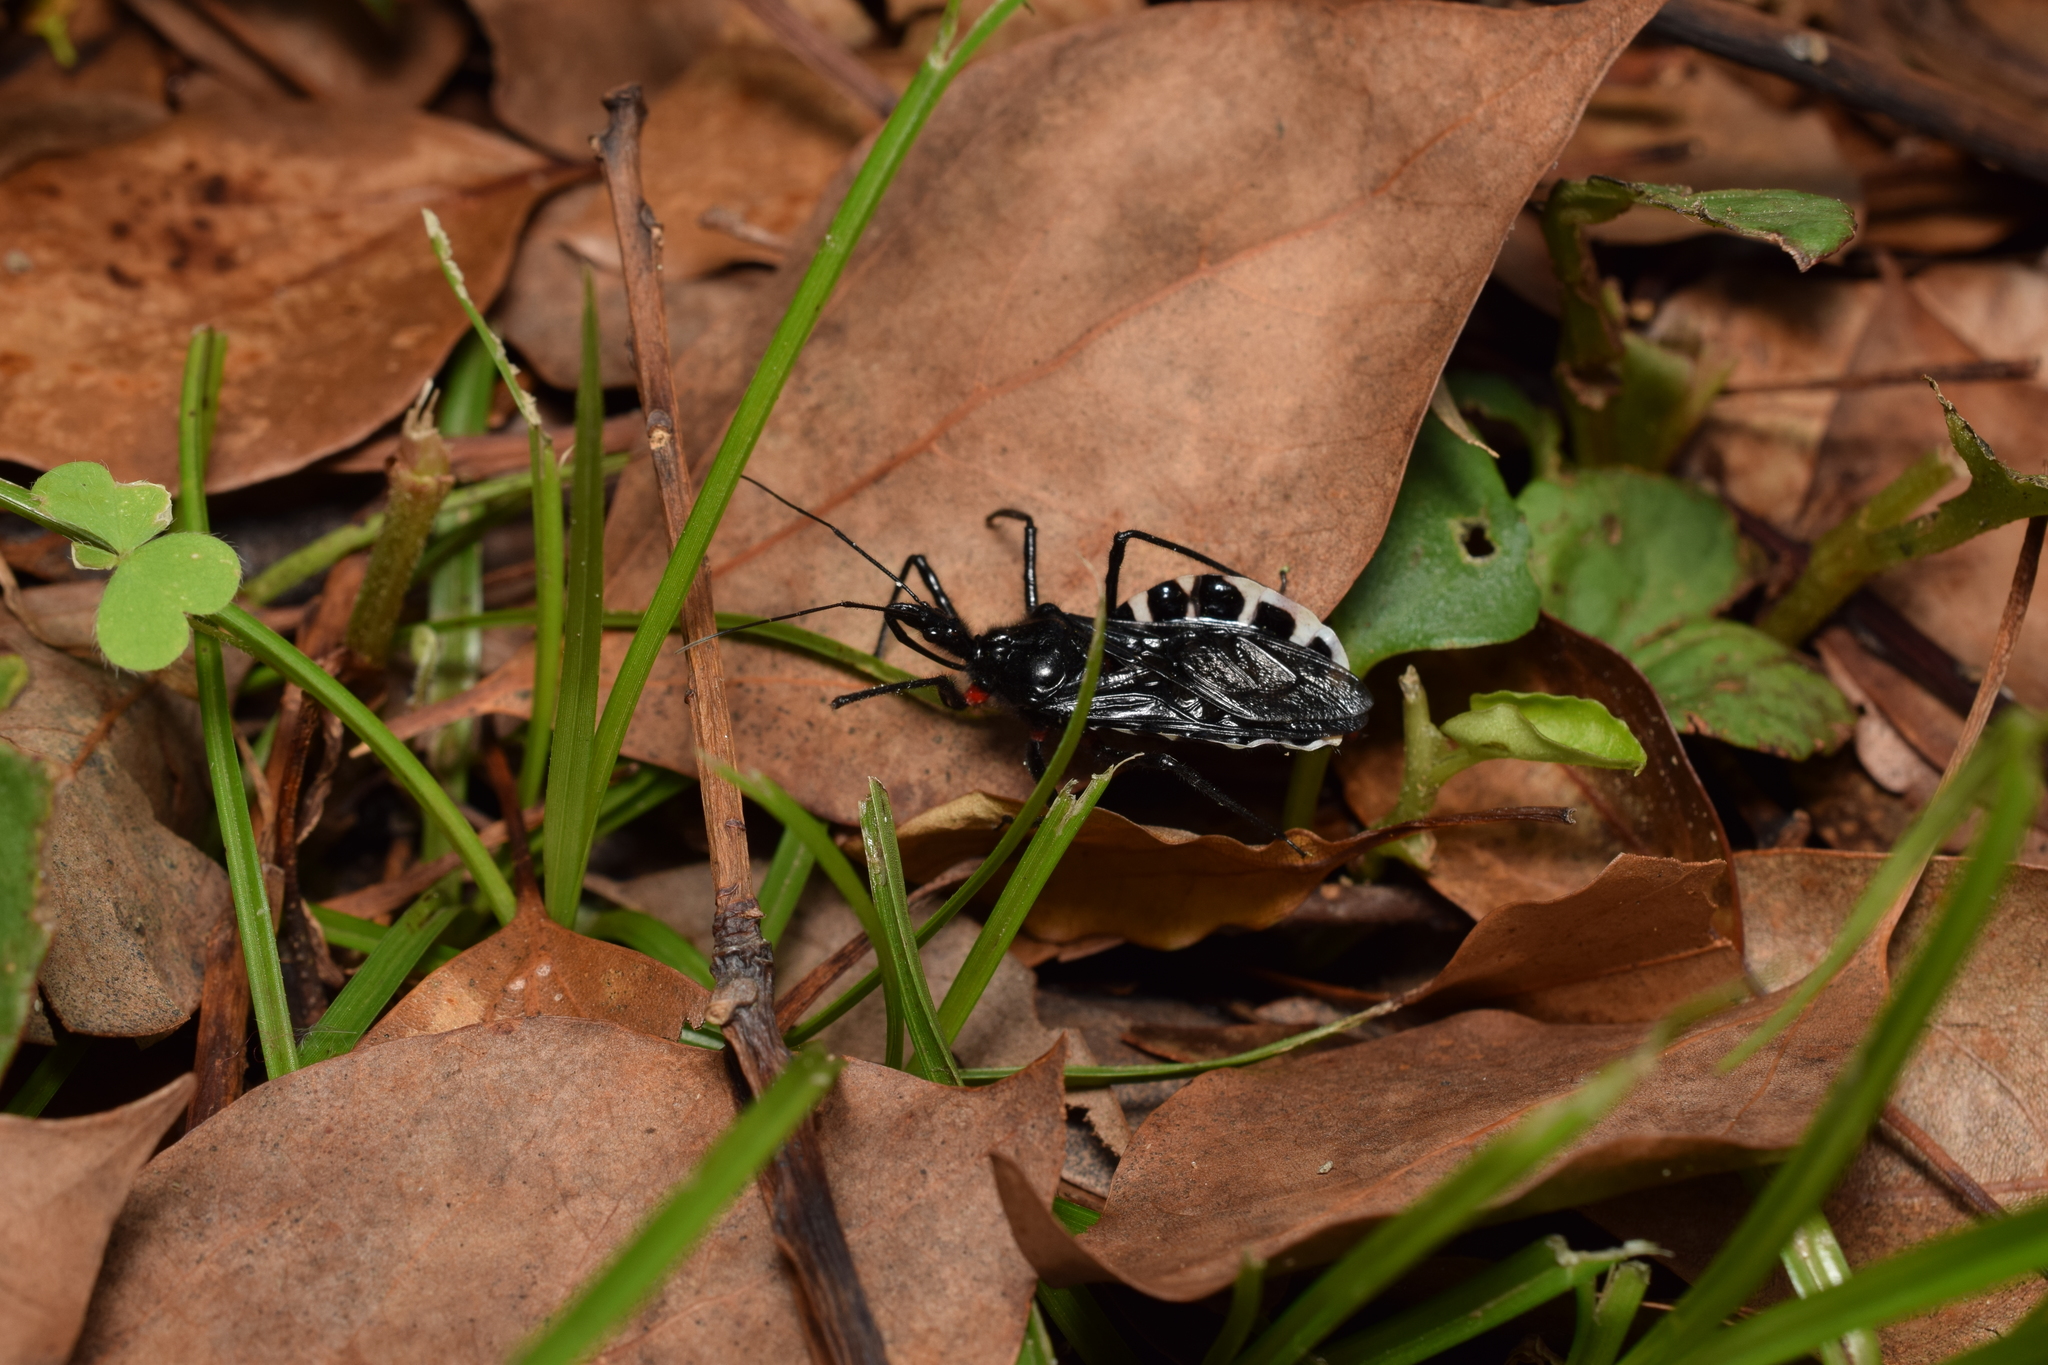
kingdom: Animalia
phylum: Arthropoda
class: Insecta
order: Hemiptera
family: Reduviidae
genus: Agriosphodrus
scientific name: Agriosphodrus dohrni
